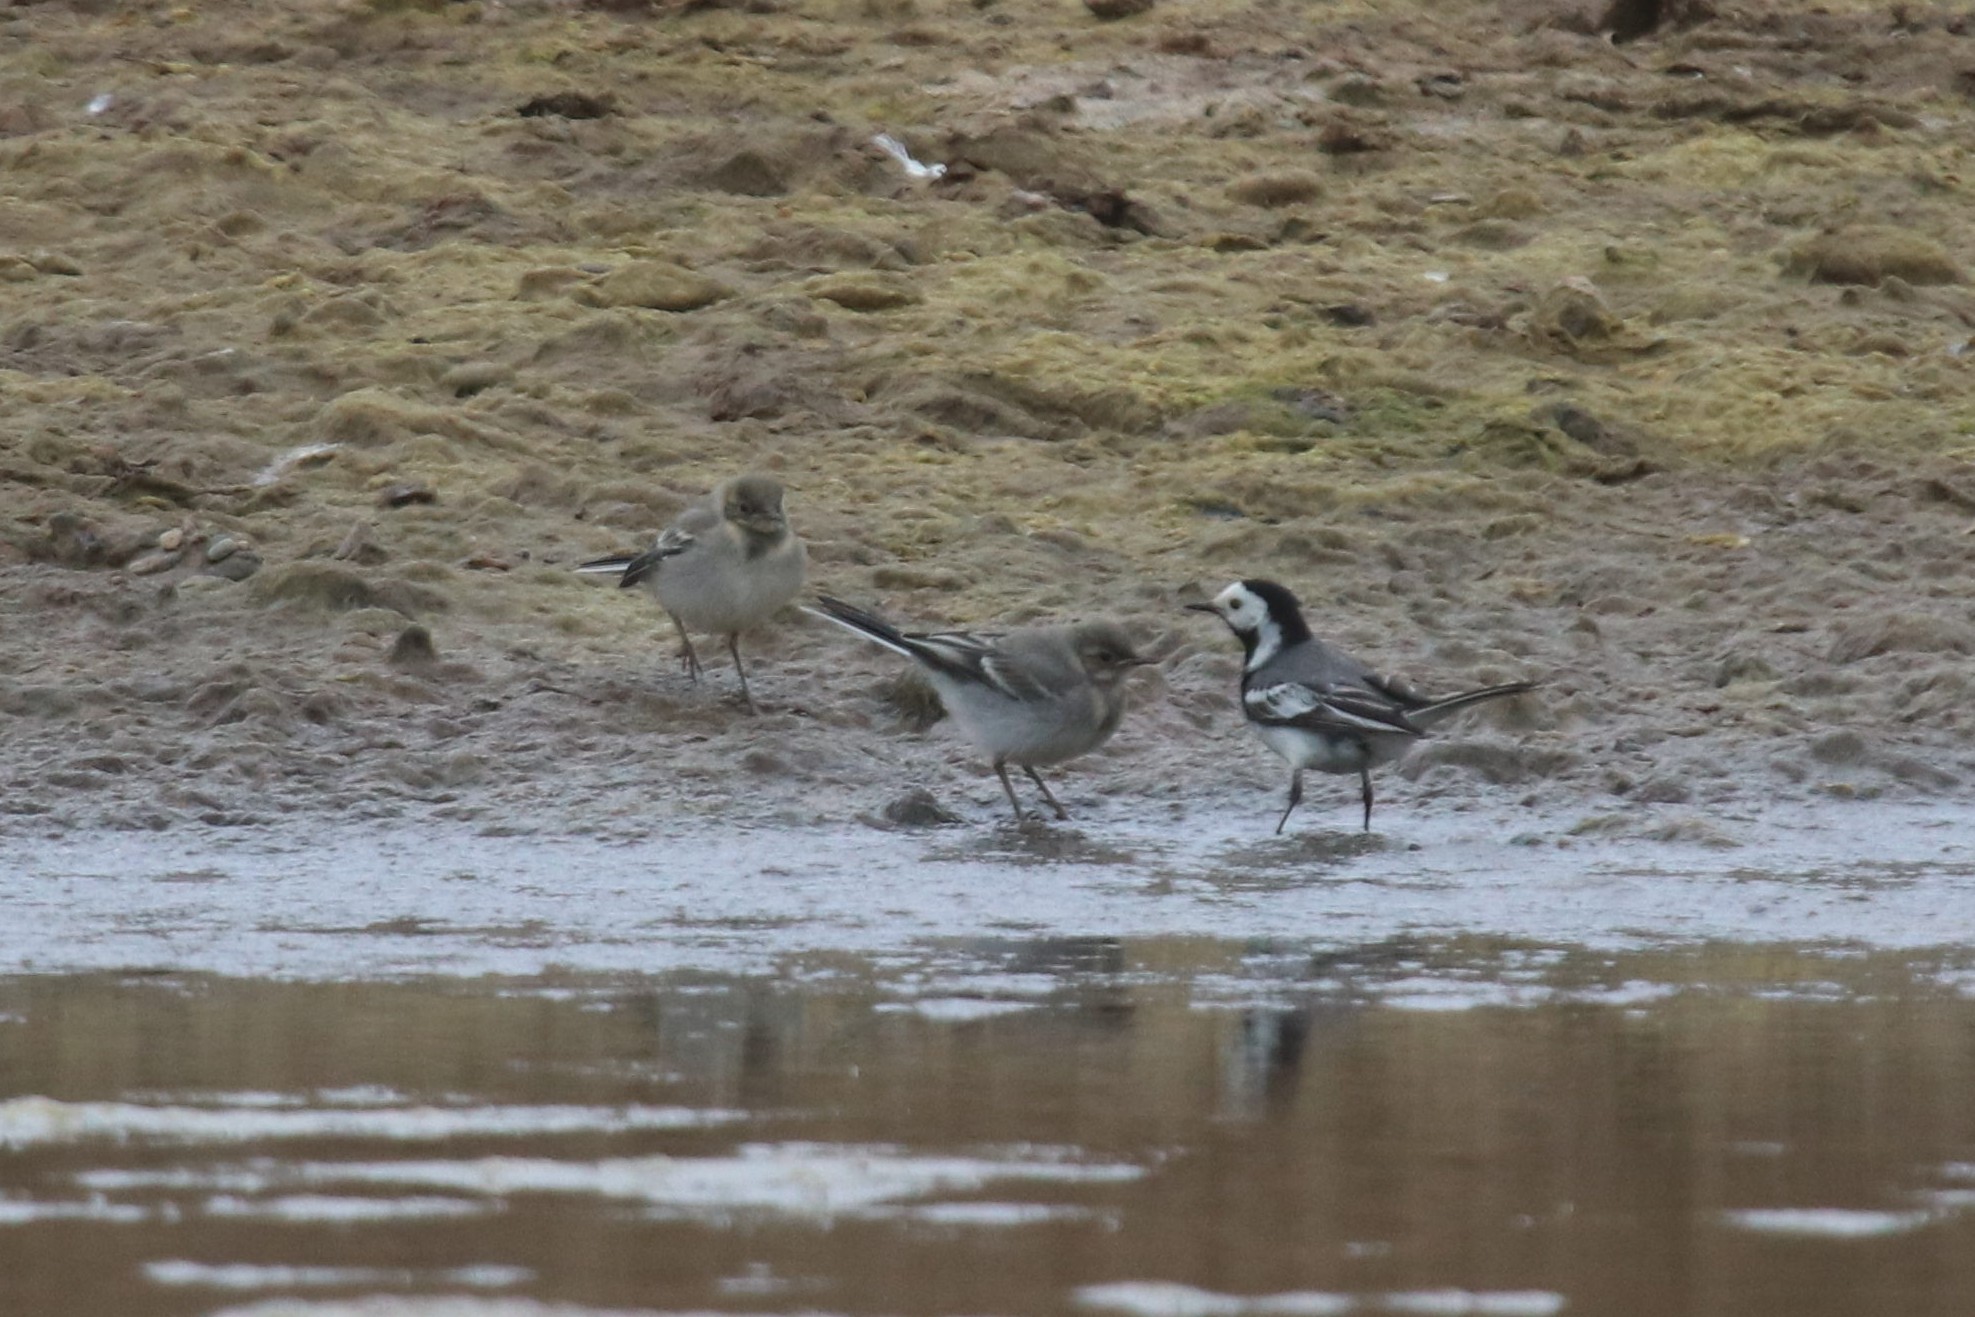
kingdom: Animalia
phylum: Chordata
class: Aves
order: Passeriformes
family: Motacillidae
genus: Motacilla
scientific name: Motacilla alba
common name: White wagtail
